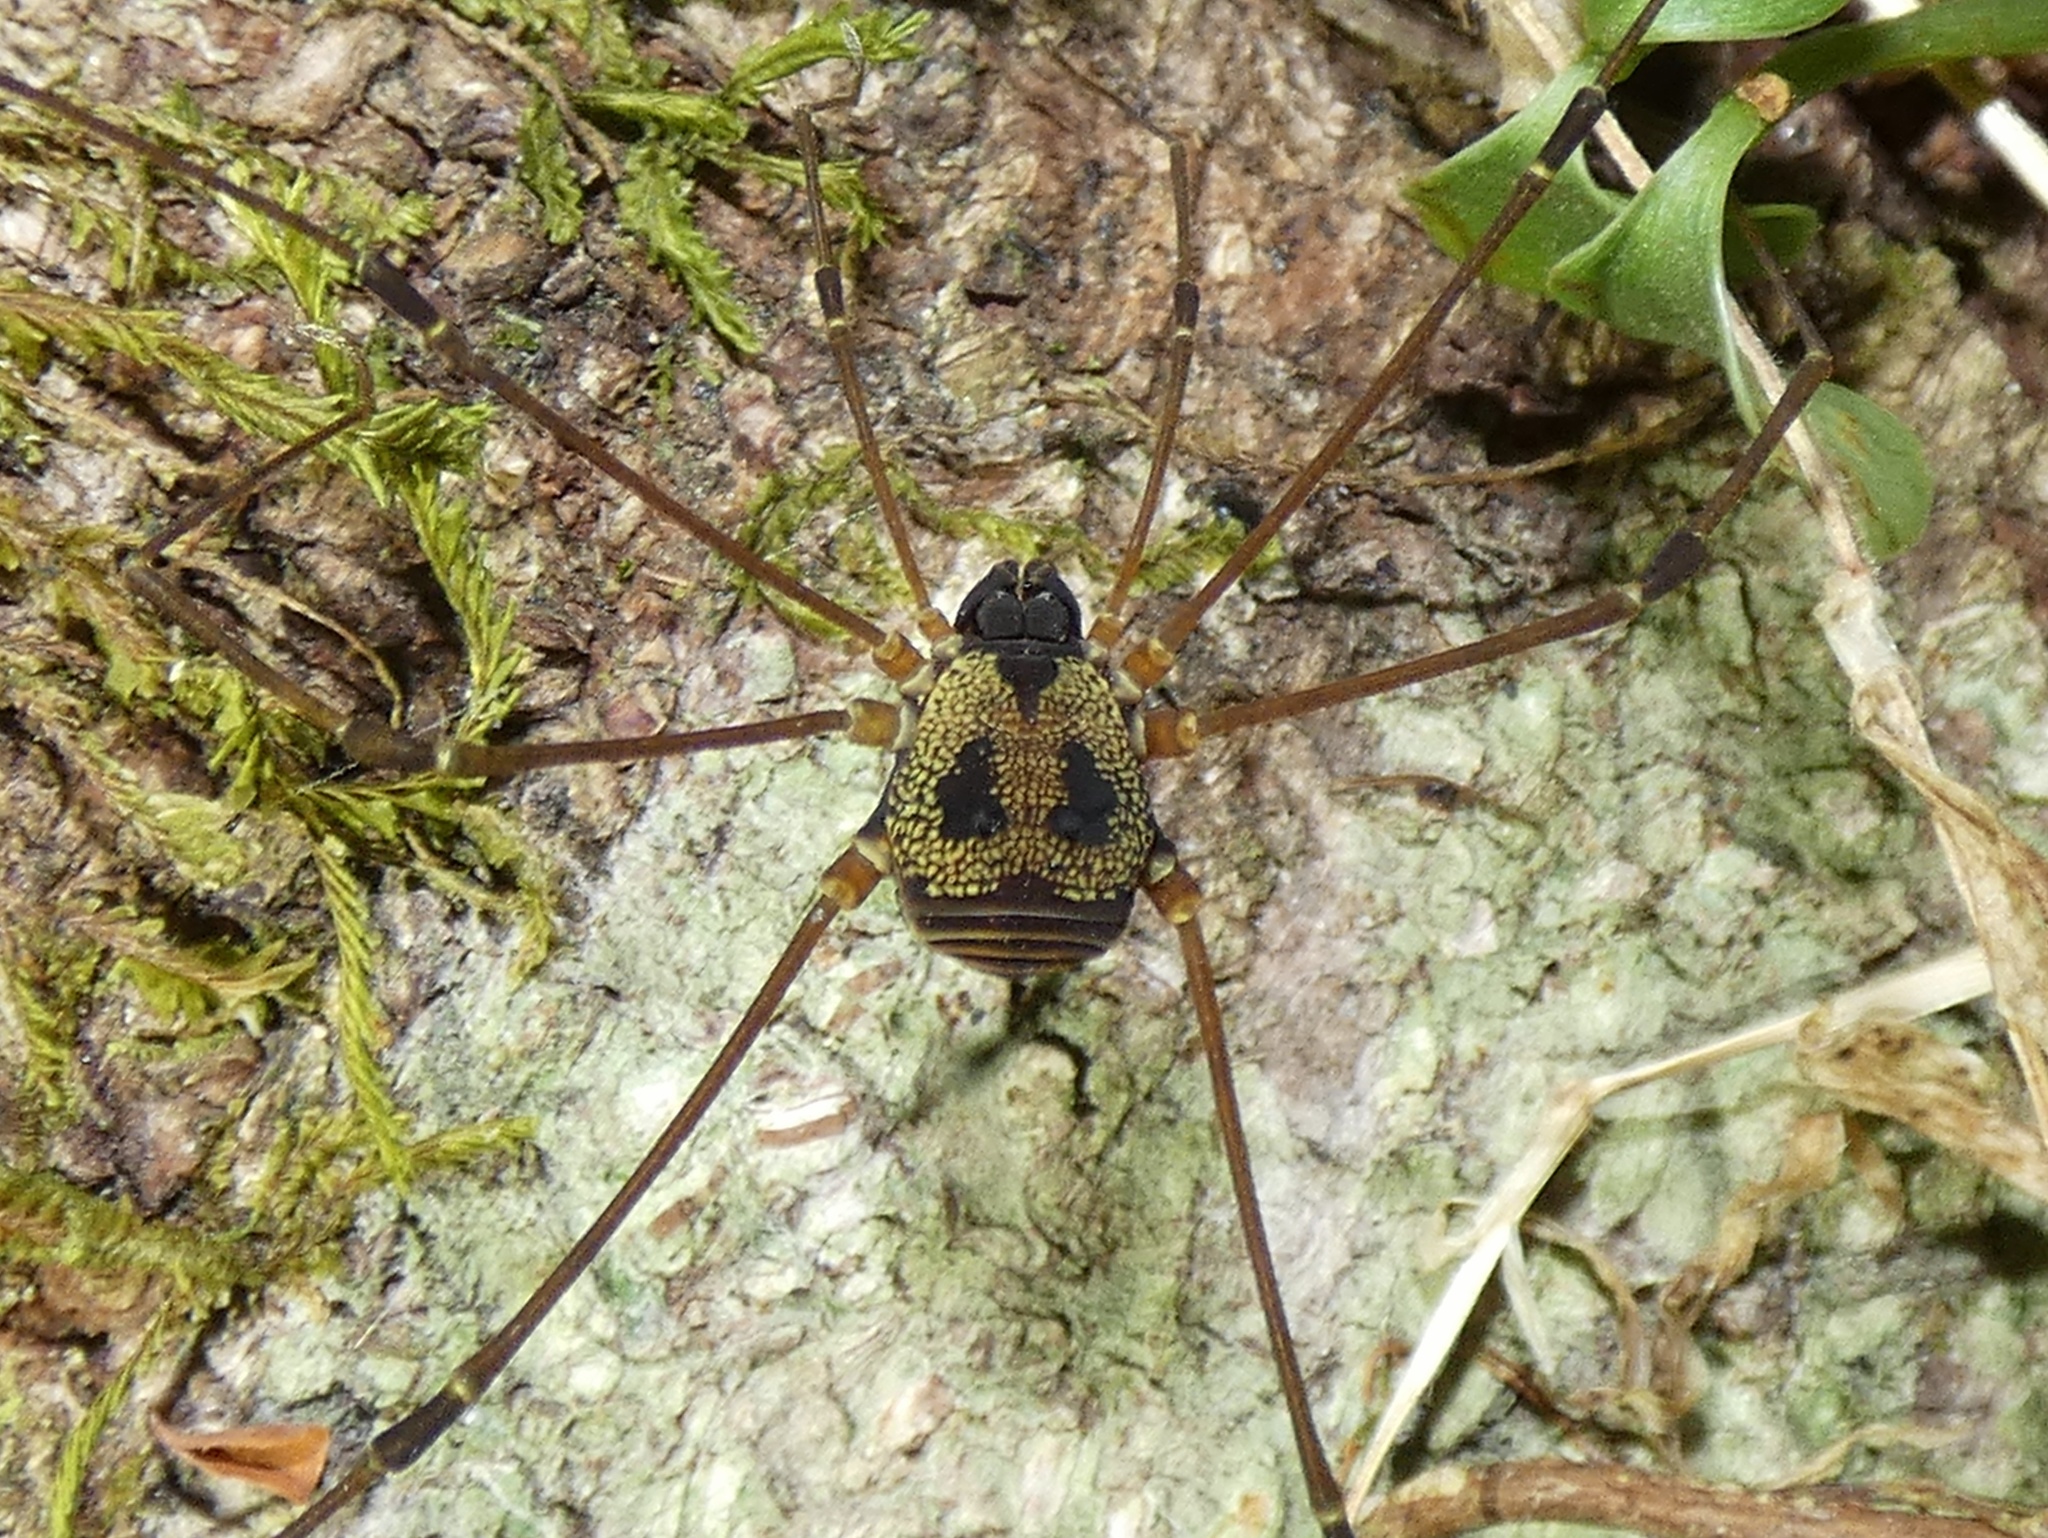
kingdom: Animalia
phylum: Arthropoda
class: Arachnida
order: Opiliones
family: Cosmetidae
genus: Paecilaema
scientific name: Paecilaema chiriquiense
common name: Harvestmen
